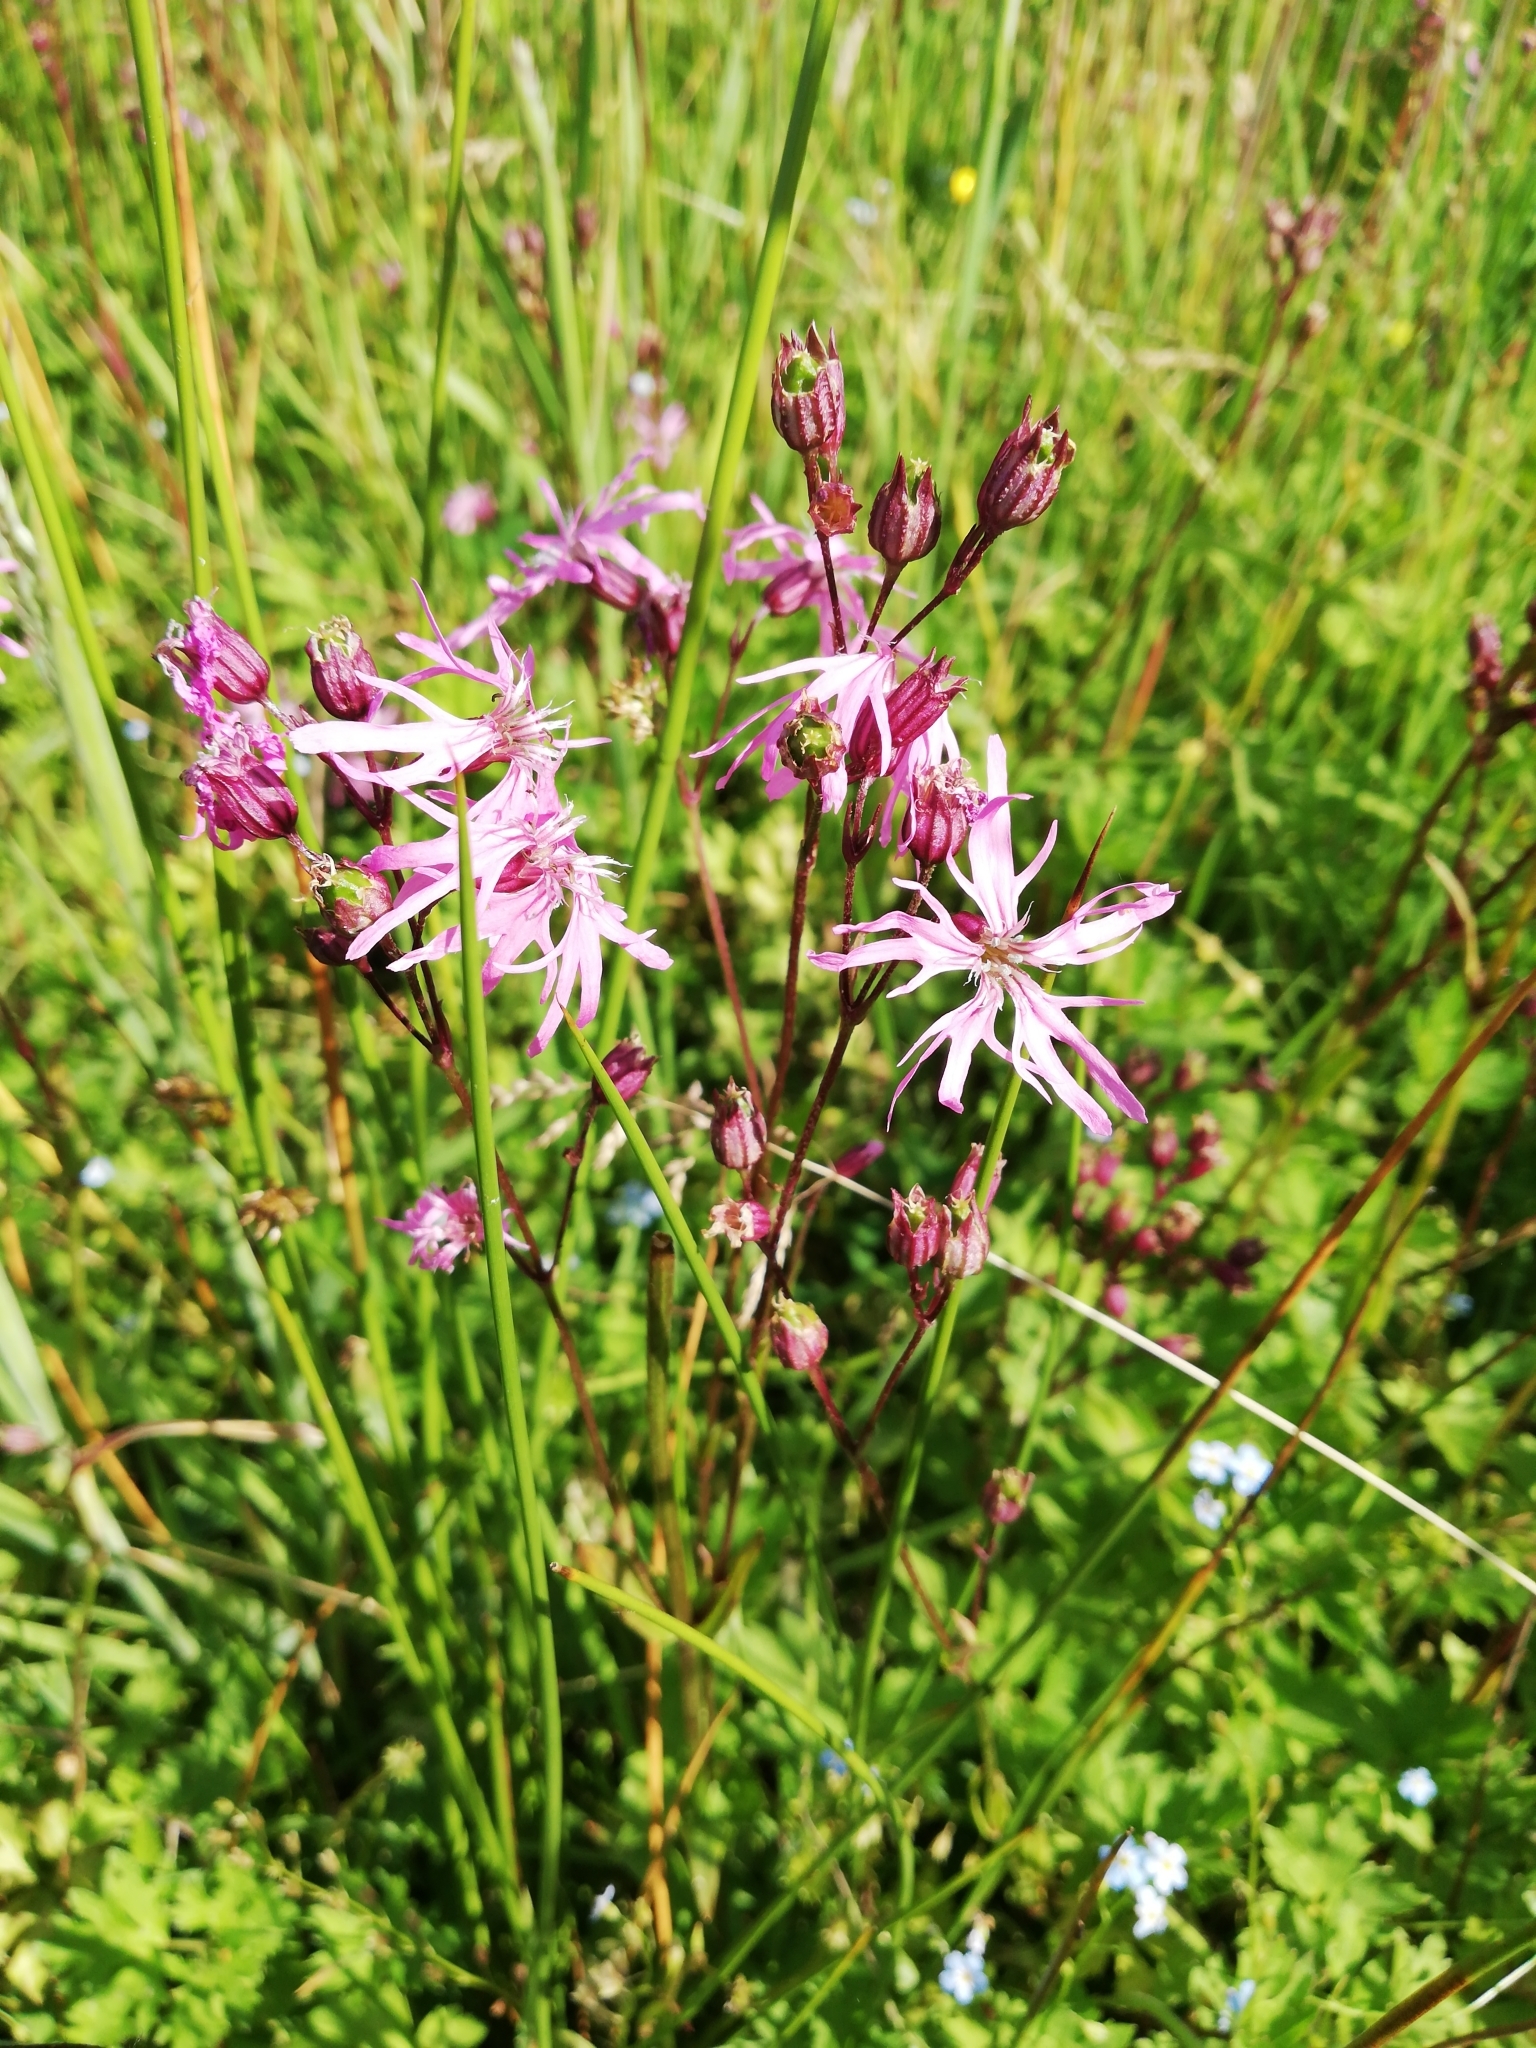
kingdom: Plantae
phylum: Tracheophyta
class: Magnoliopsida
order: Caryophyllales
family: Caryophyllaceae
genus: Silene
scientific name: Silene flos-cuculi
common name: Ragged-robin
